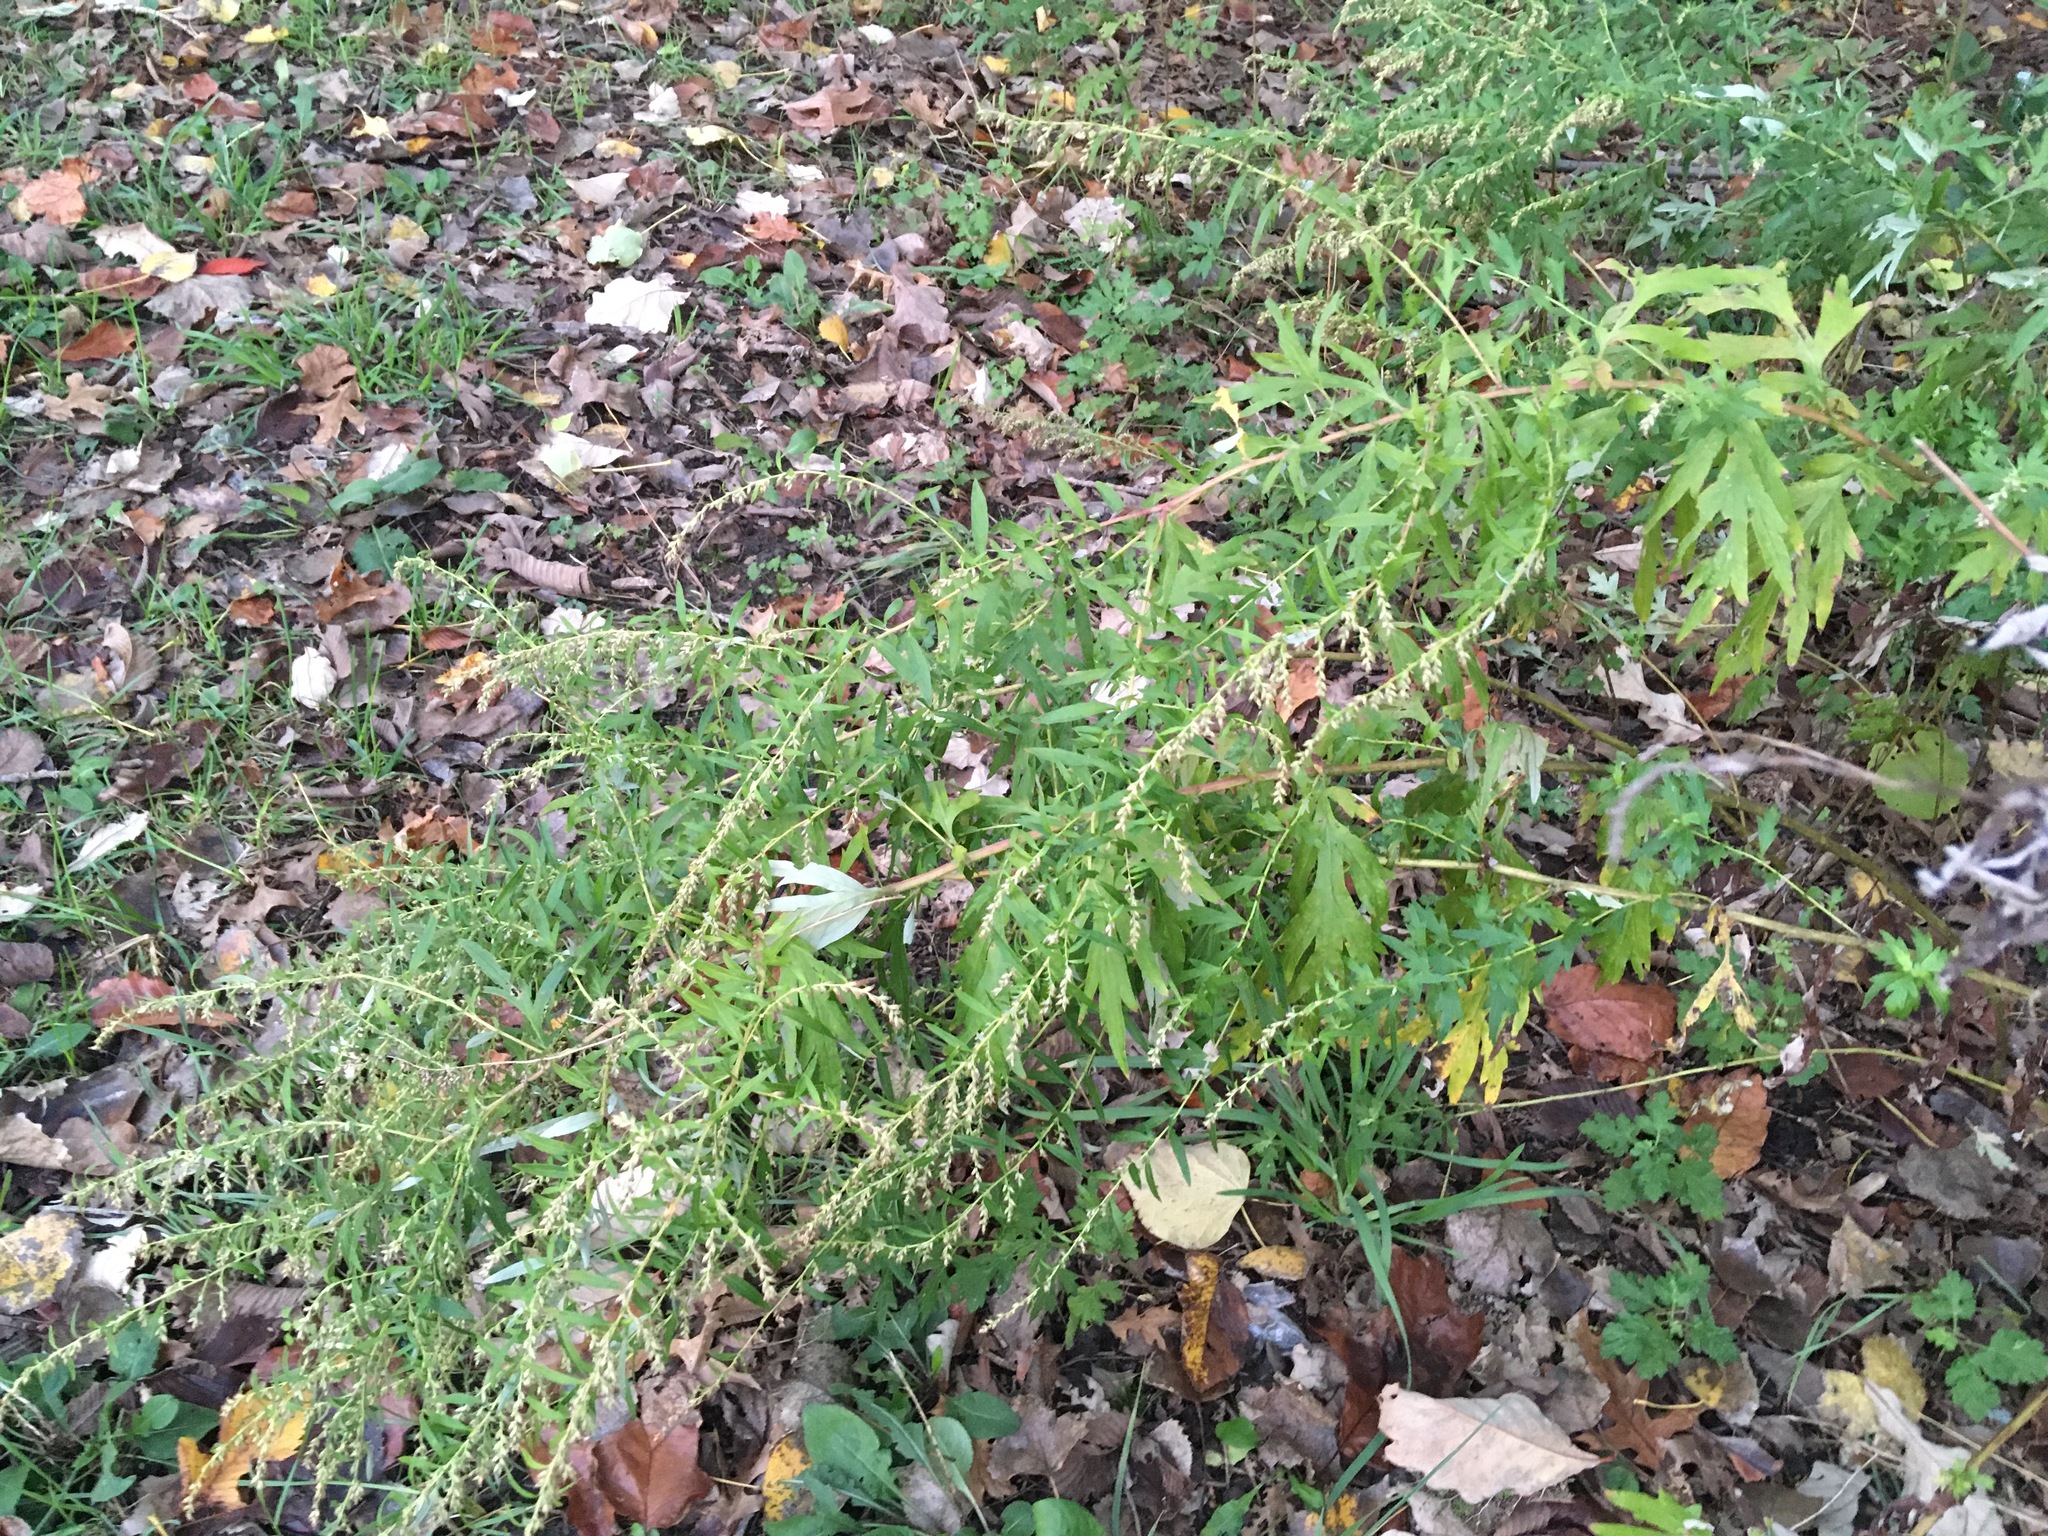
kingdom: Plantae
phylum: Tracheophyta
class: Magnoliopsida
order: Asterales
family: Asteraceae
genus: Artemisia
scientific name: Artemisia vulgaris
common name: Mugwort
